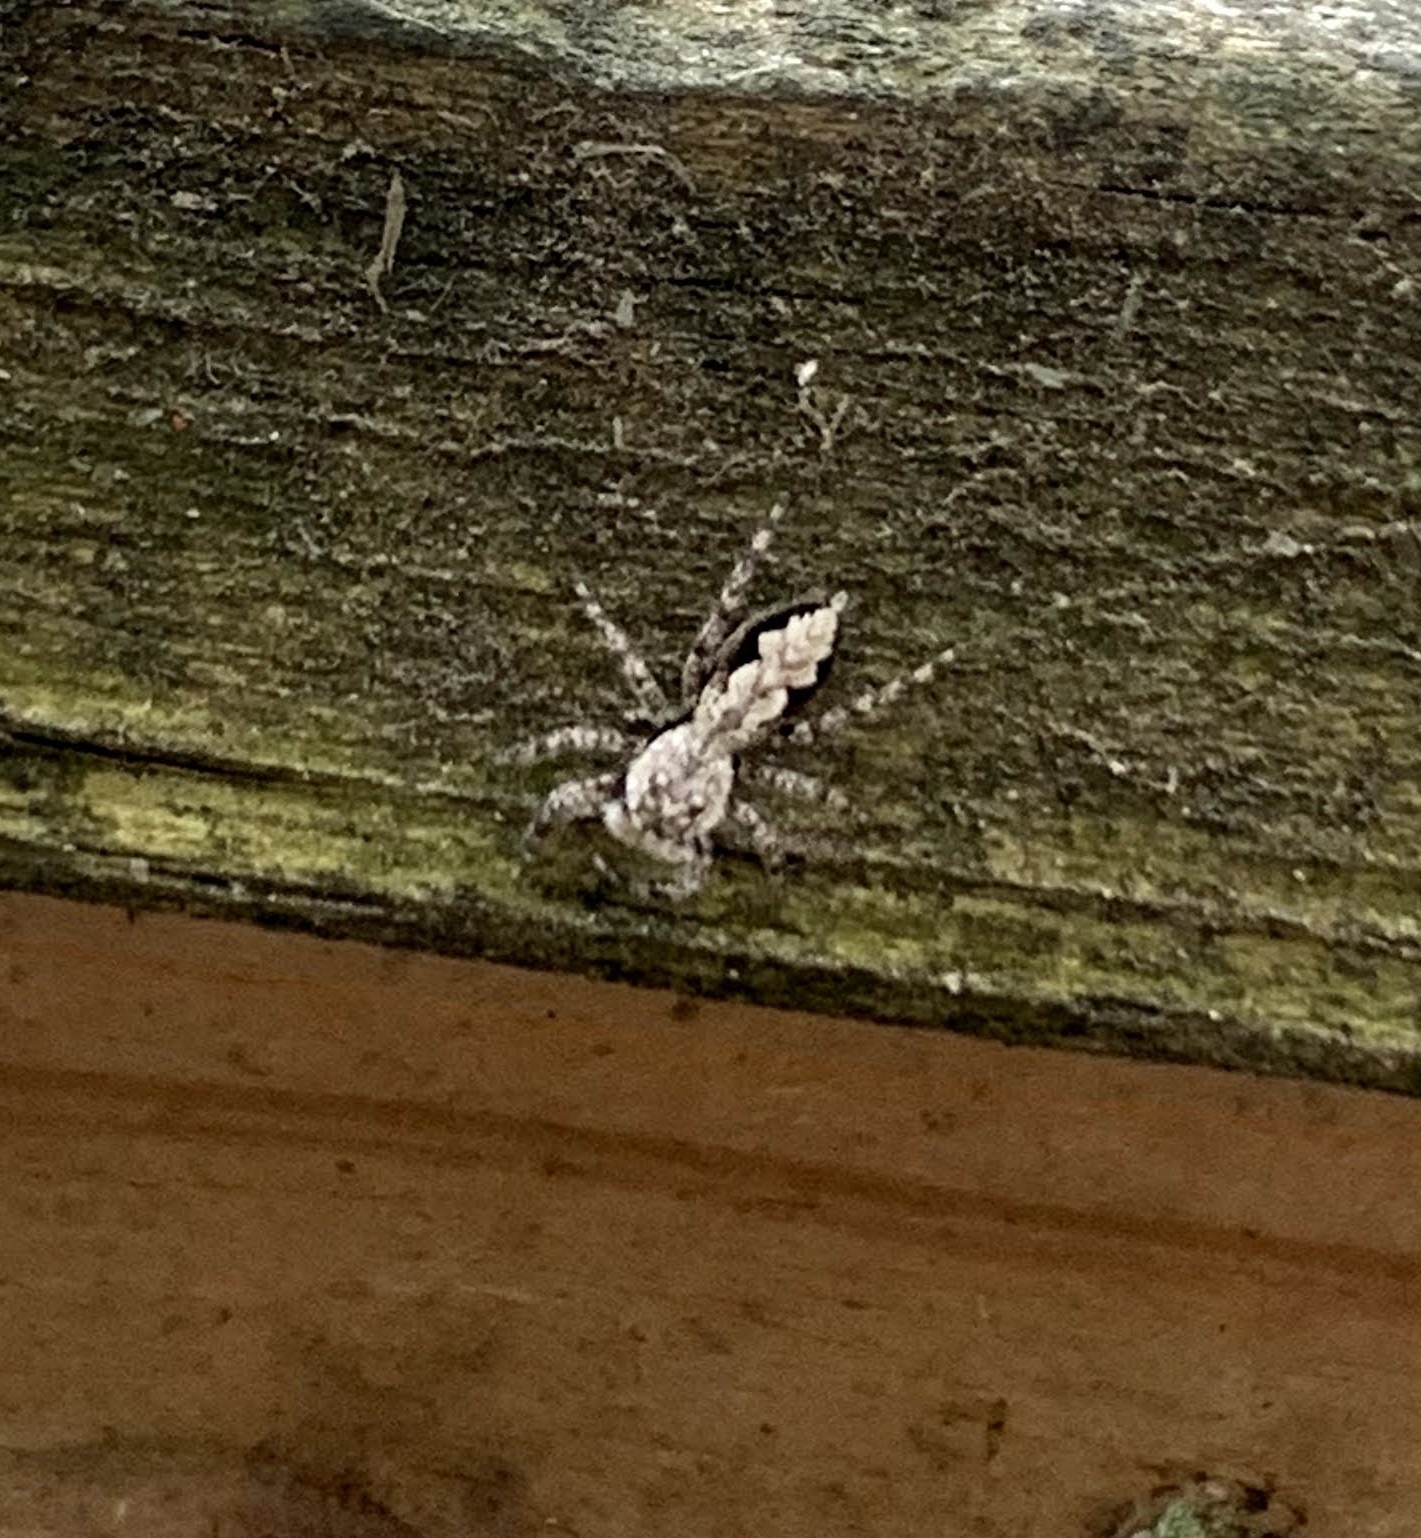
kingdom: Animalia
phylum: Arthropoda
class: Arachnida
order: Araneae
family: Salticidae
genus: Platycryptus
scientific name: Platycryptus undatus
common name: Tan jumping spider
